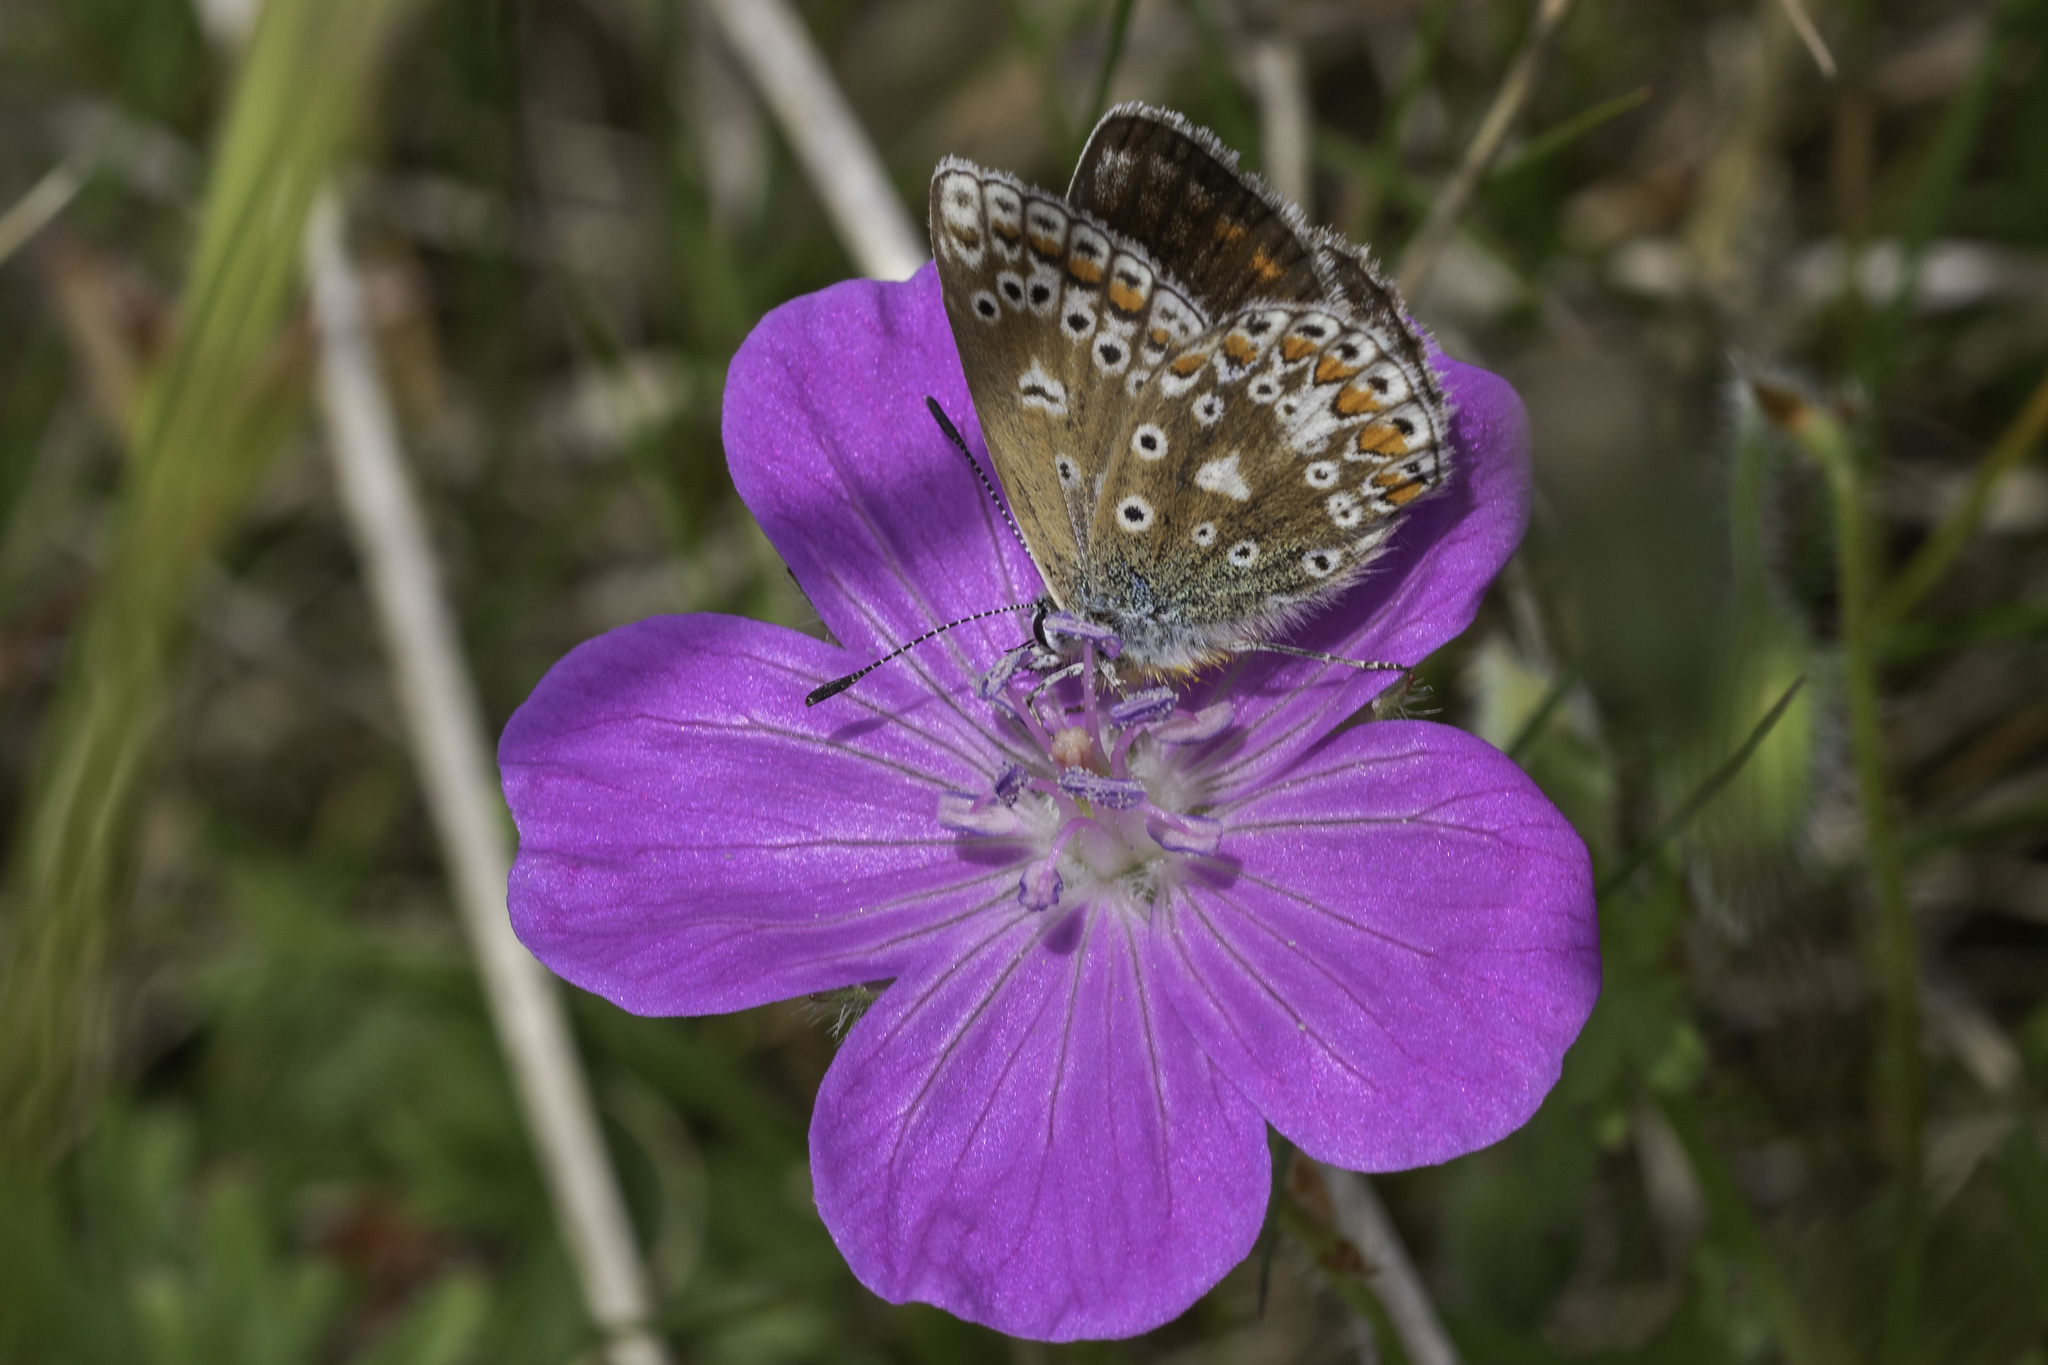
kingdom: Animalia
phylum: Arthropoda
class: Insecta
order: Lepidoptera
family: Lycaenidae
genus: Polyommatus
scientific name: Polyommatus icarus
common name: Common blue
